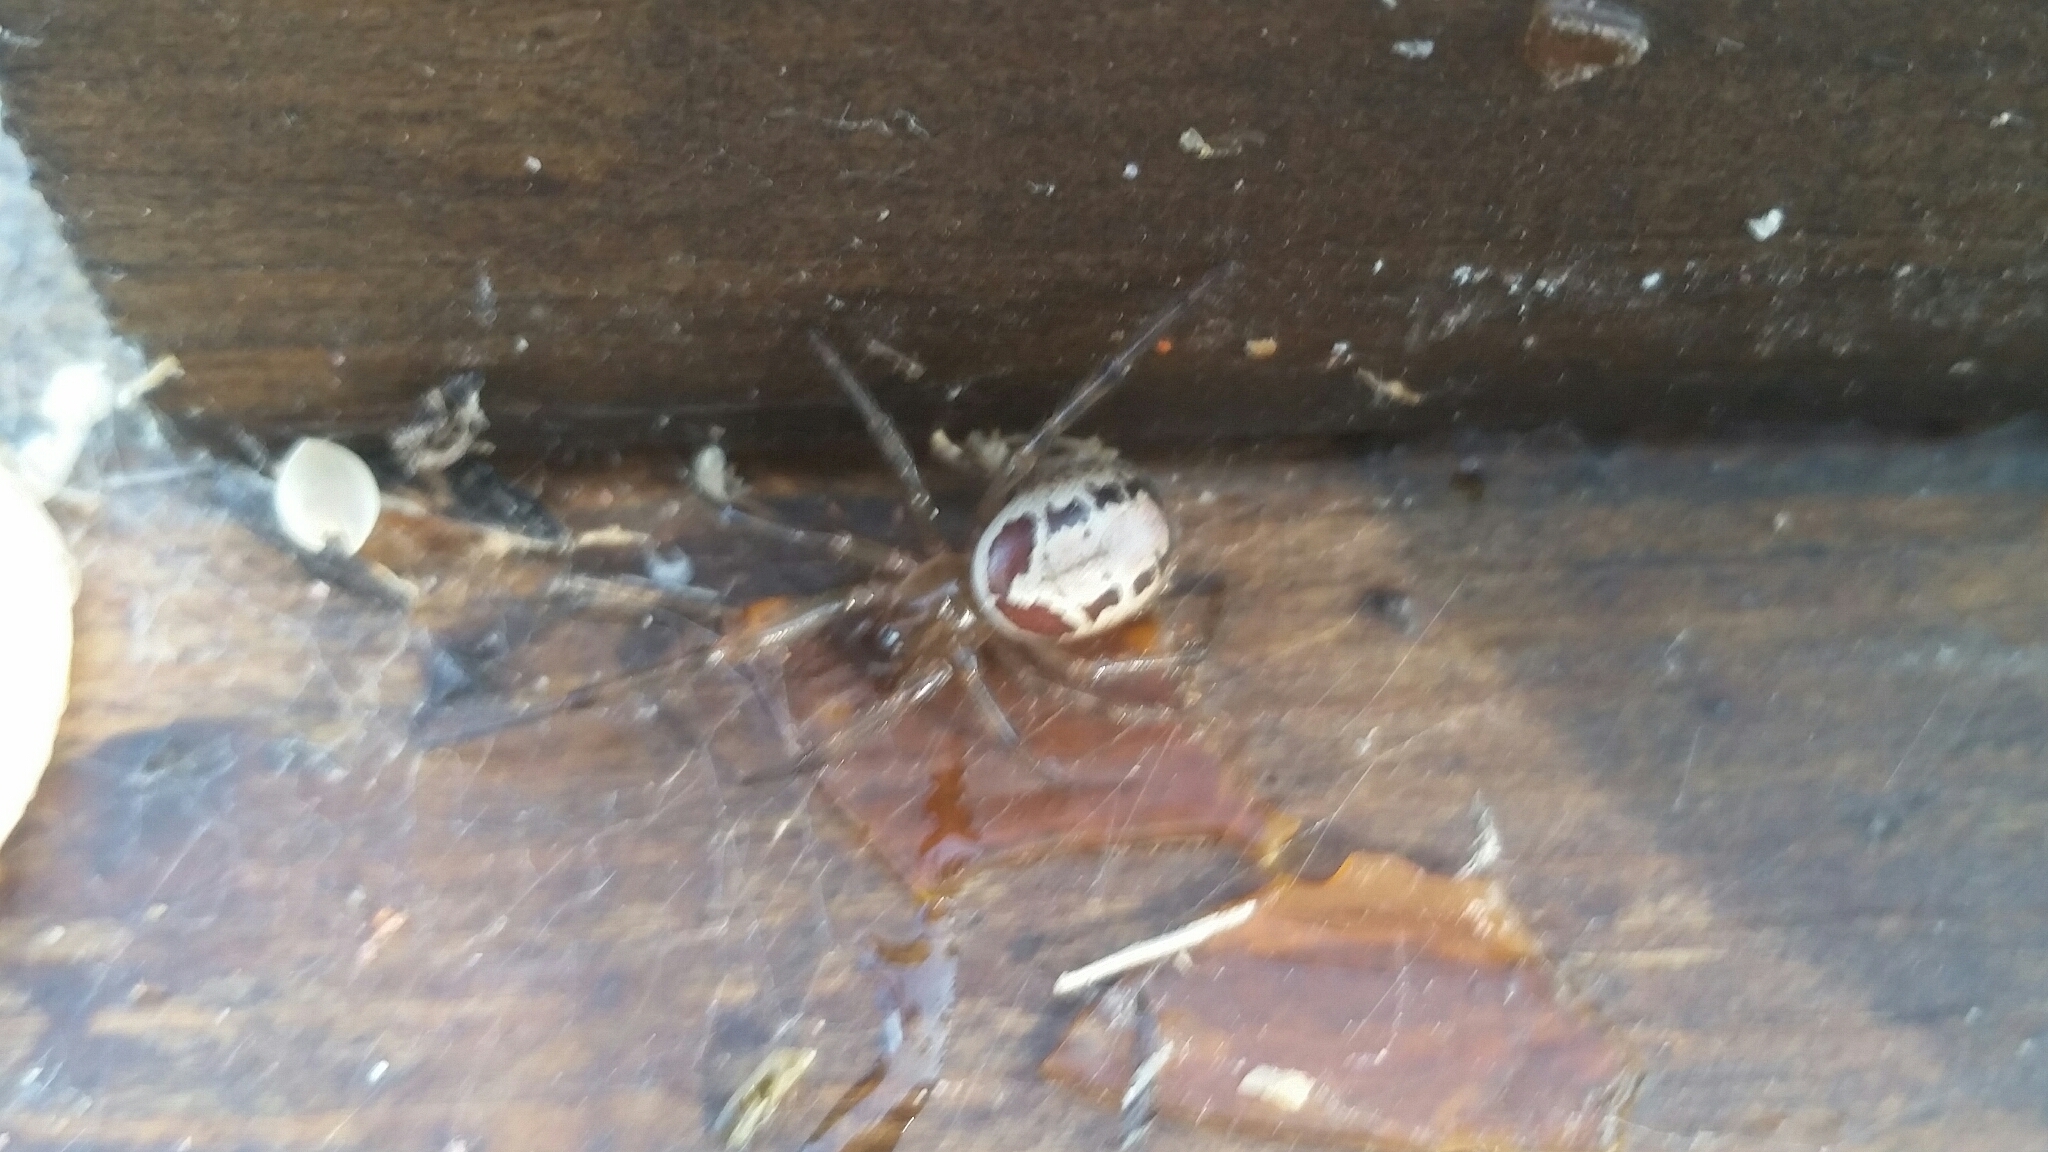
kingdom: Animalia
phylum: Arthropoda
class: Arachnida
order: Araneae
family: Theridiidae
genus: Steatoda
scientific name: Steatoda nobilis
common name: Cobweb weaver
